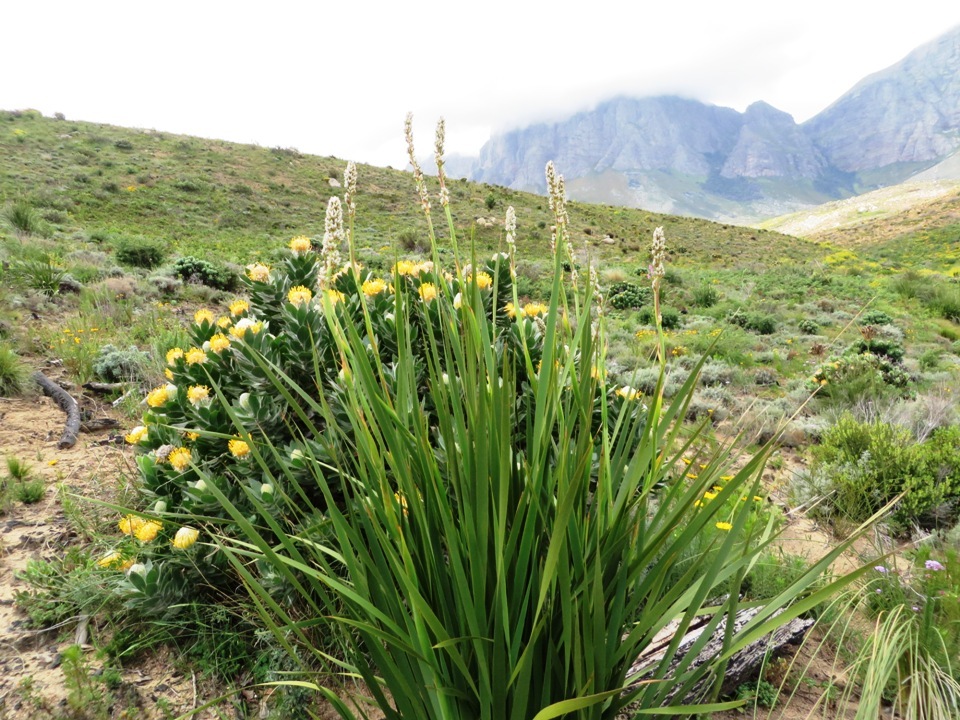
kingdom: Plantae
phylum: Tracheophyta
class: Liliopsida
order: Asparagales
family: Iridaceae
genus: Aristea
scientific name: Aristea capitata
